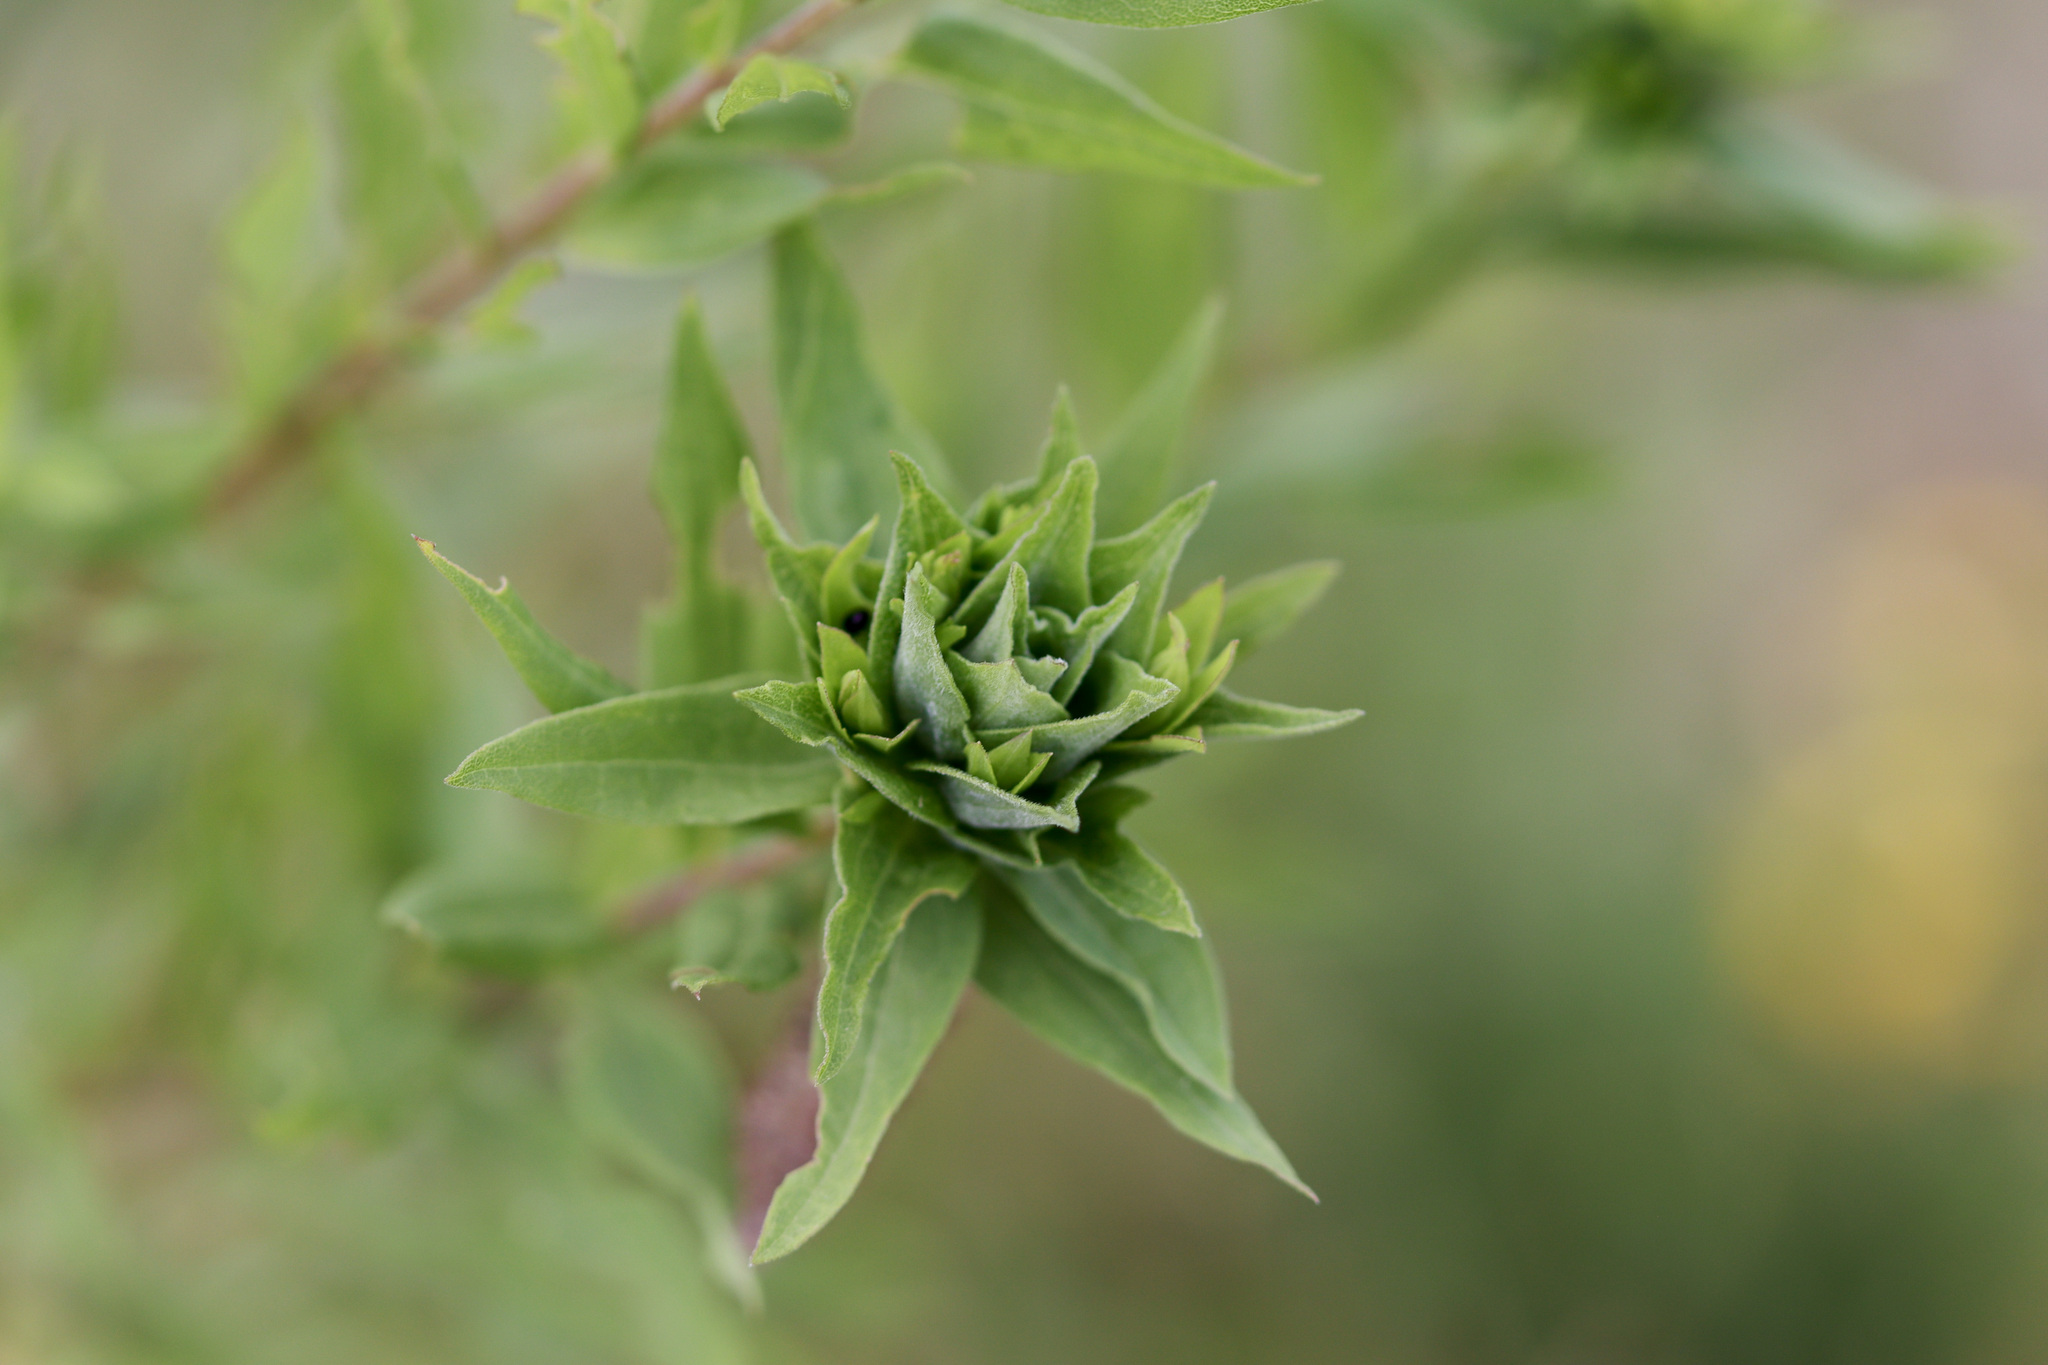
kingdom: Animalia
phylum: Arthropoda
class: Insecta
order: Diptera
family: Cecidomyiidae
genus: Rhopalomyia
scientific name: Rhopalomyia solidaginis
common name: Goldenrod bunch gall midge
